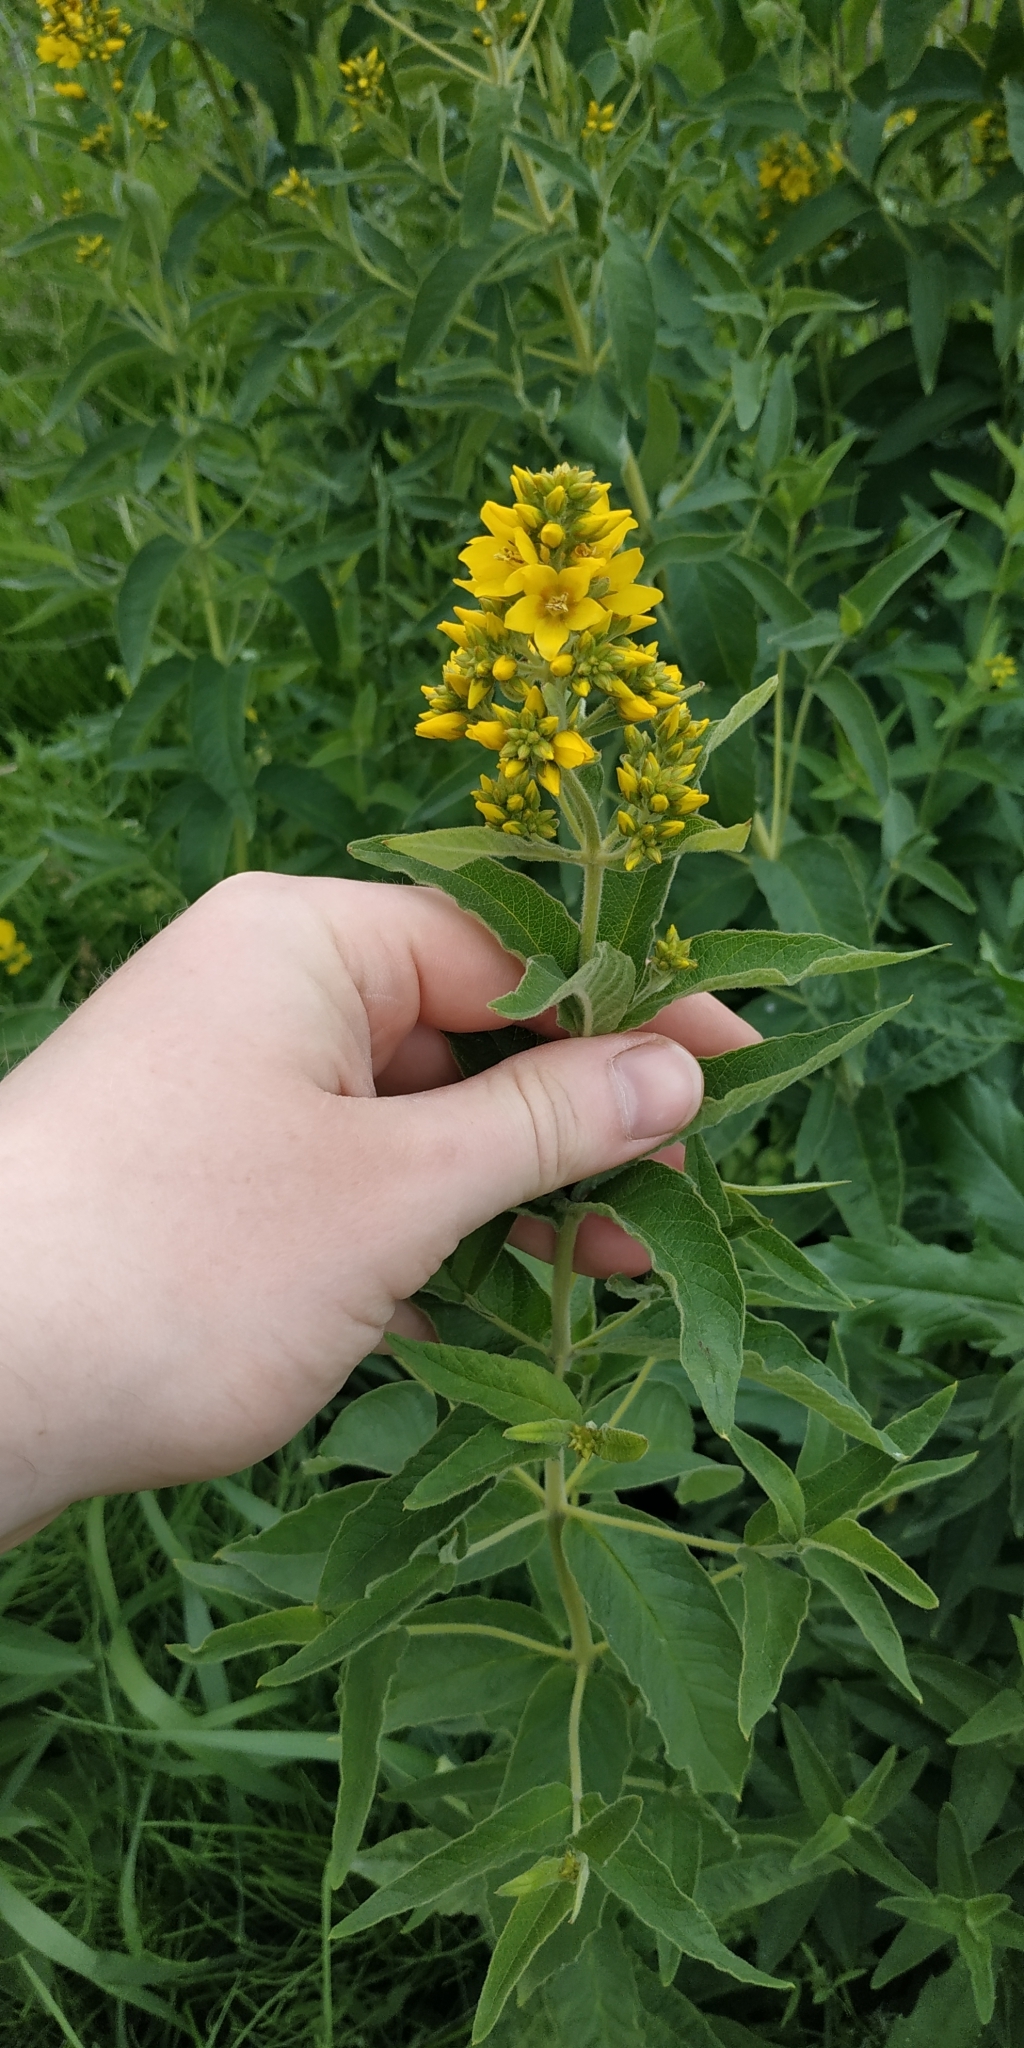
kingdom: Plantae
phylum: Tracheophyta
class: Magnoliopsida
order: Ericales
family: Primulaceae
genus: Lysimachia
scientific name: Lysimachia vulgaris
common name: Yellow loosestrife
